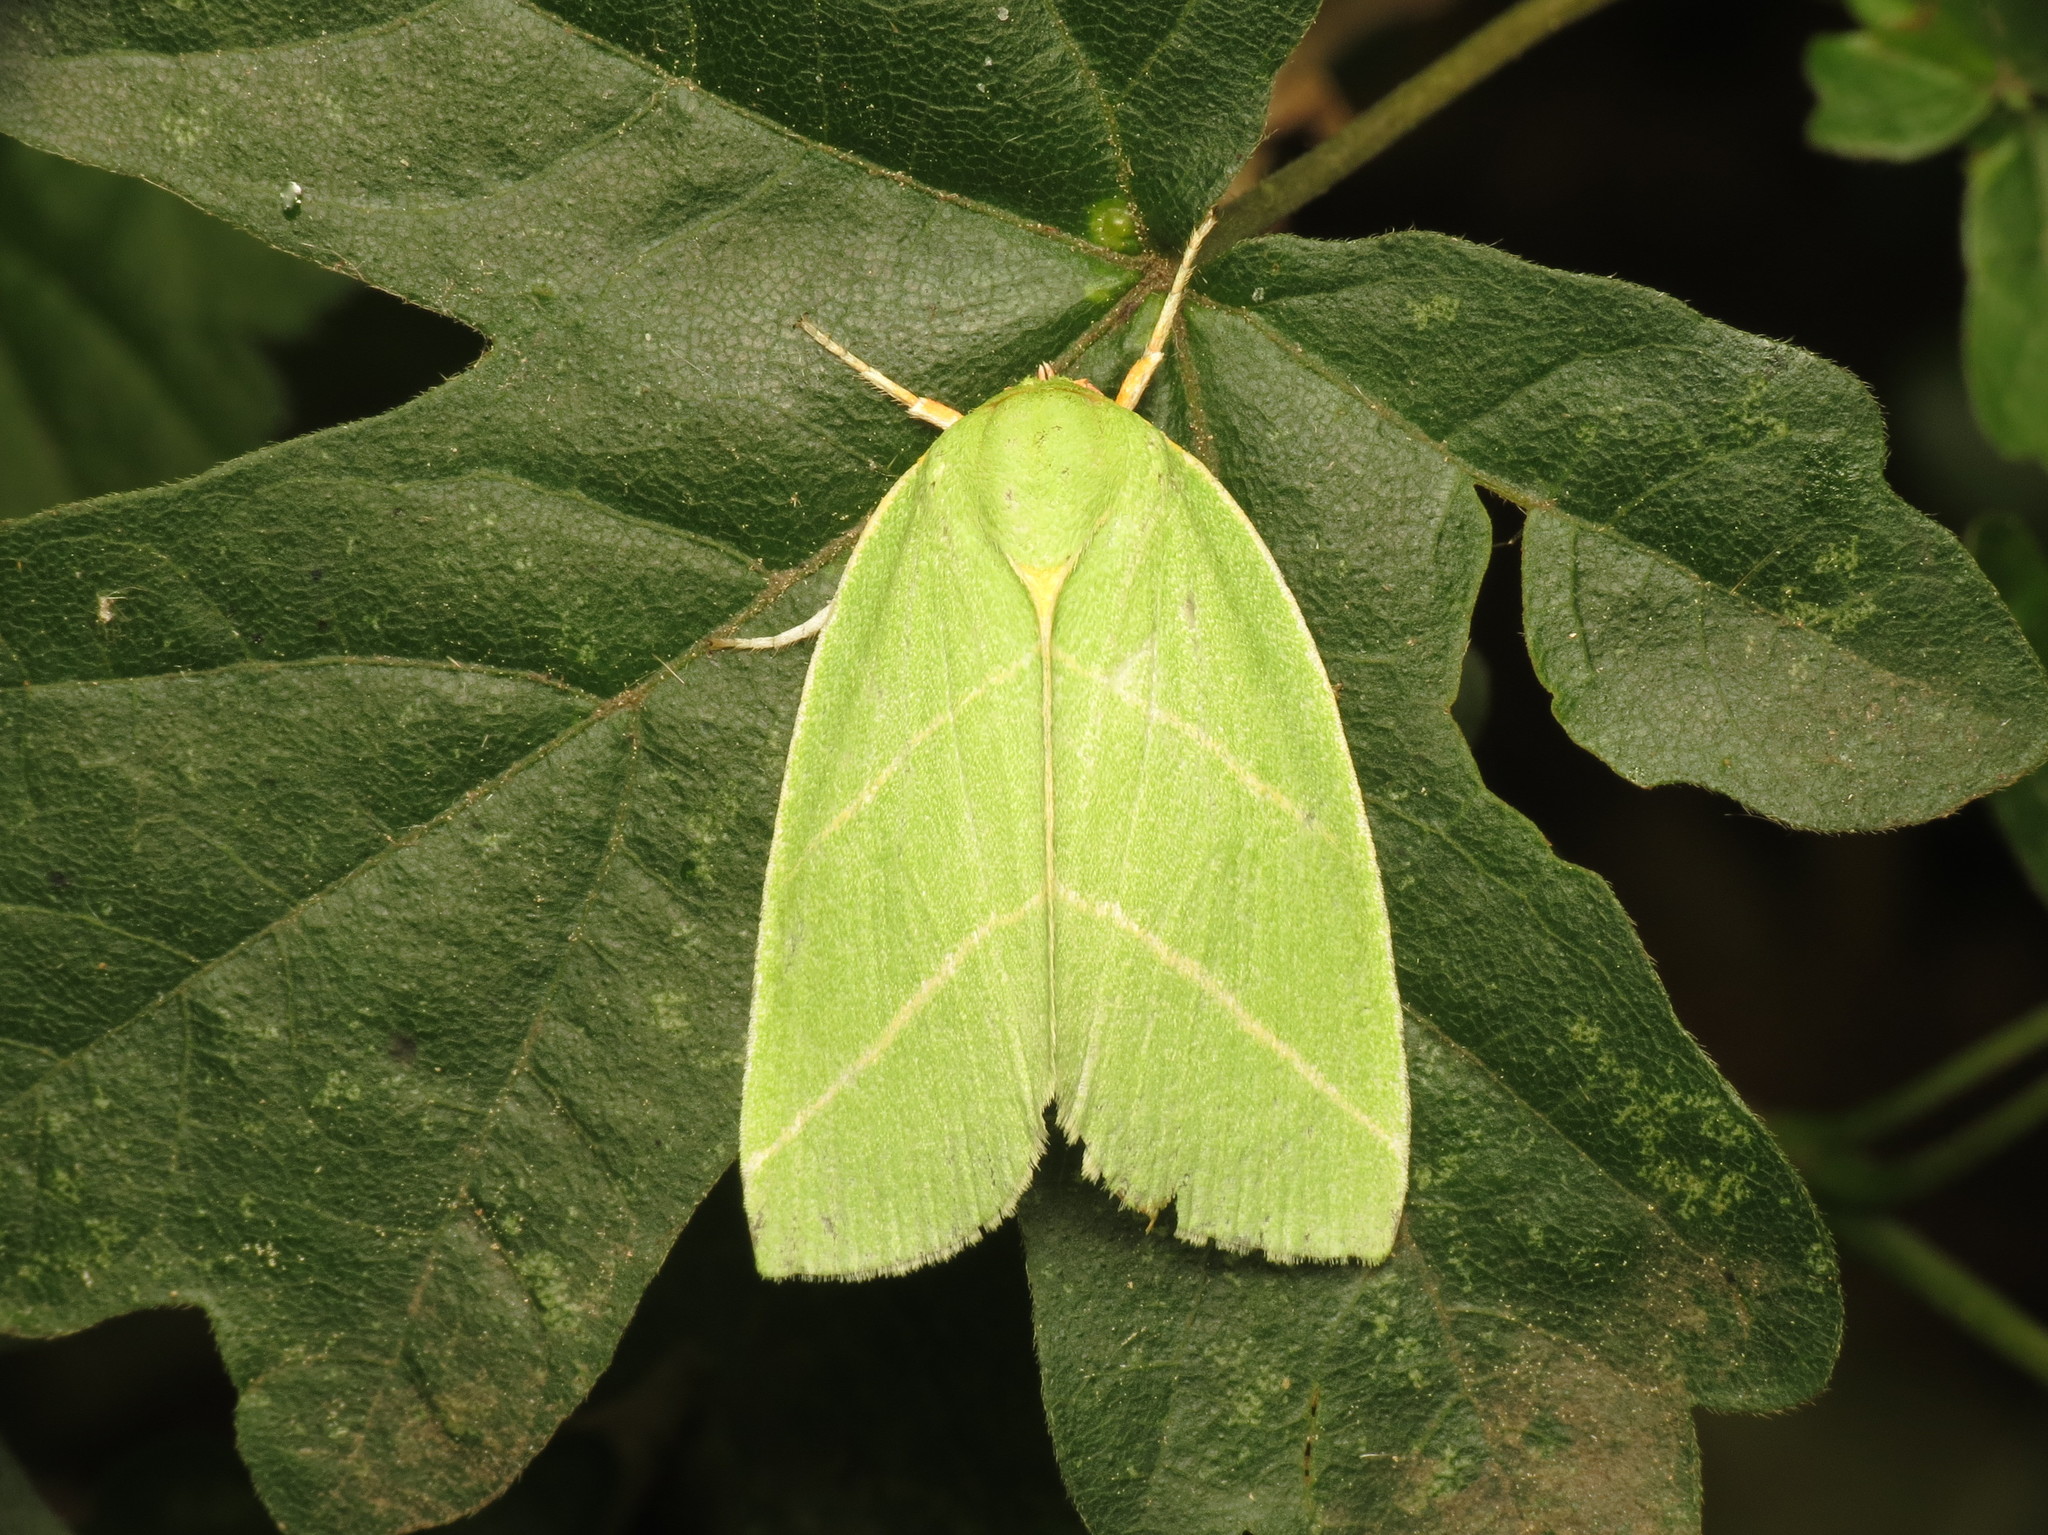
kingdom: Animalia
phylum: Arthropoda
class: Insecta
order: Lepidoptera
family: Nolidae
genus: Bena
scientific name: Bena bicolorana
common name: Scarce silver-lines
